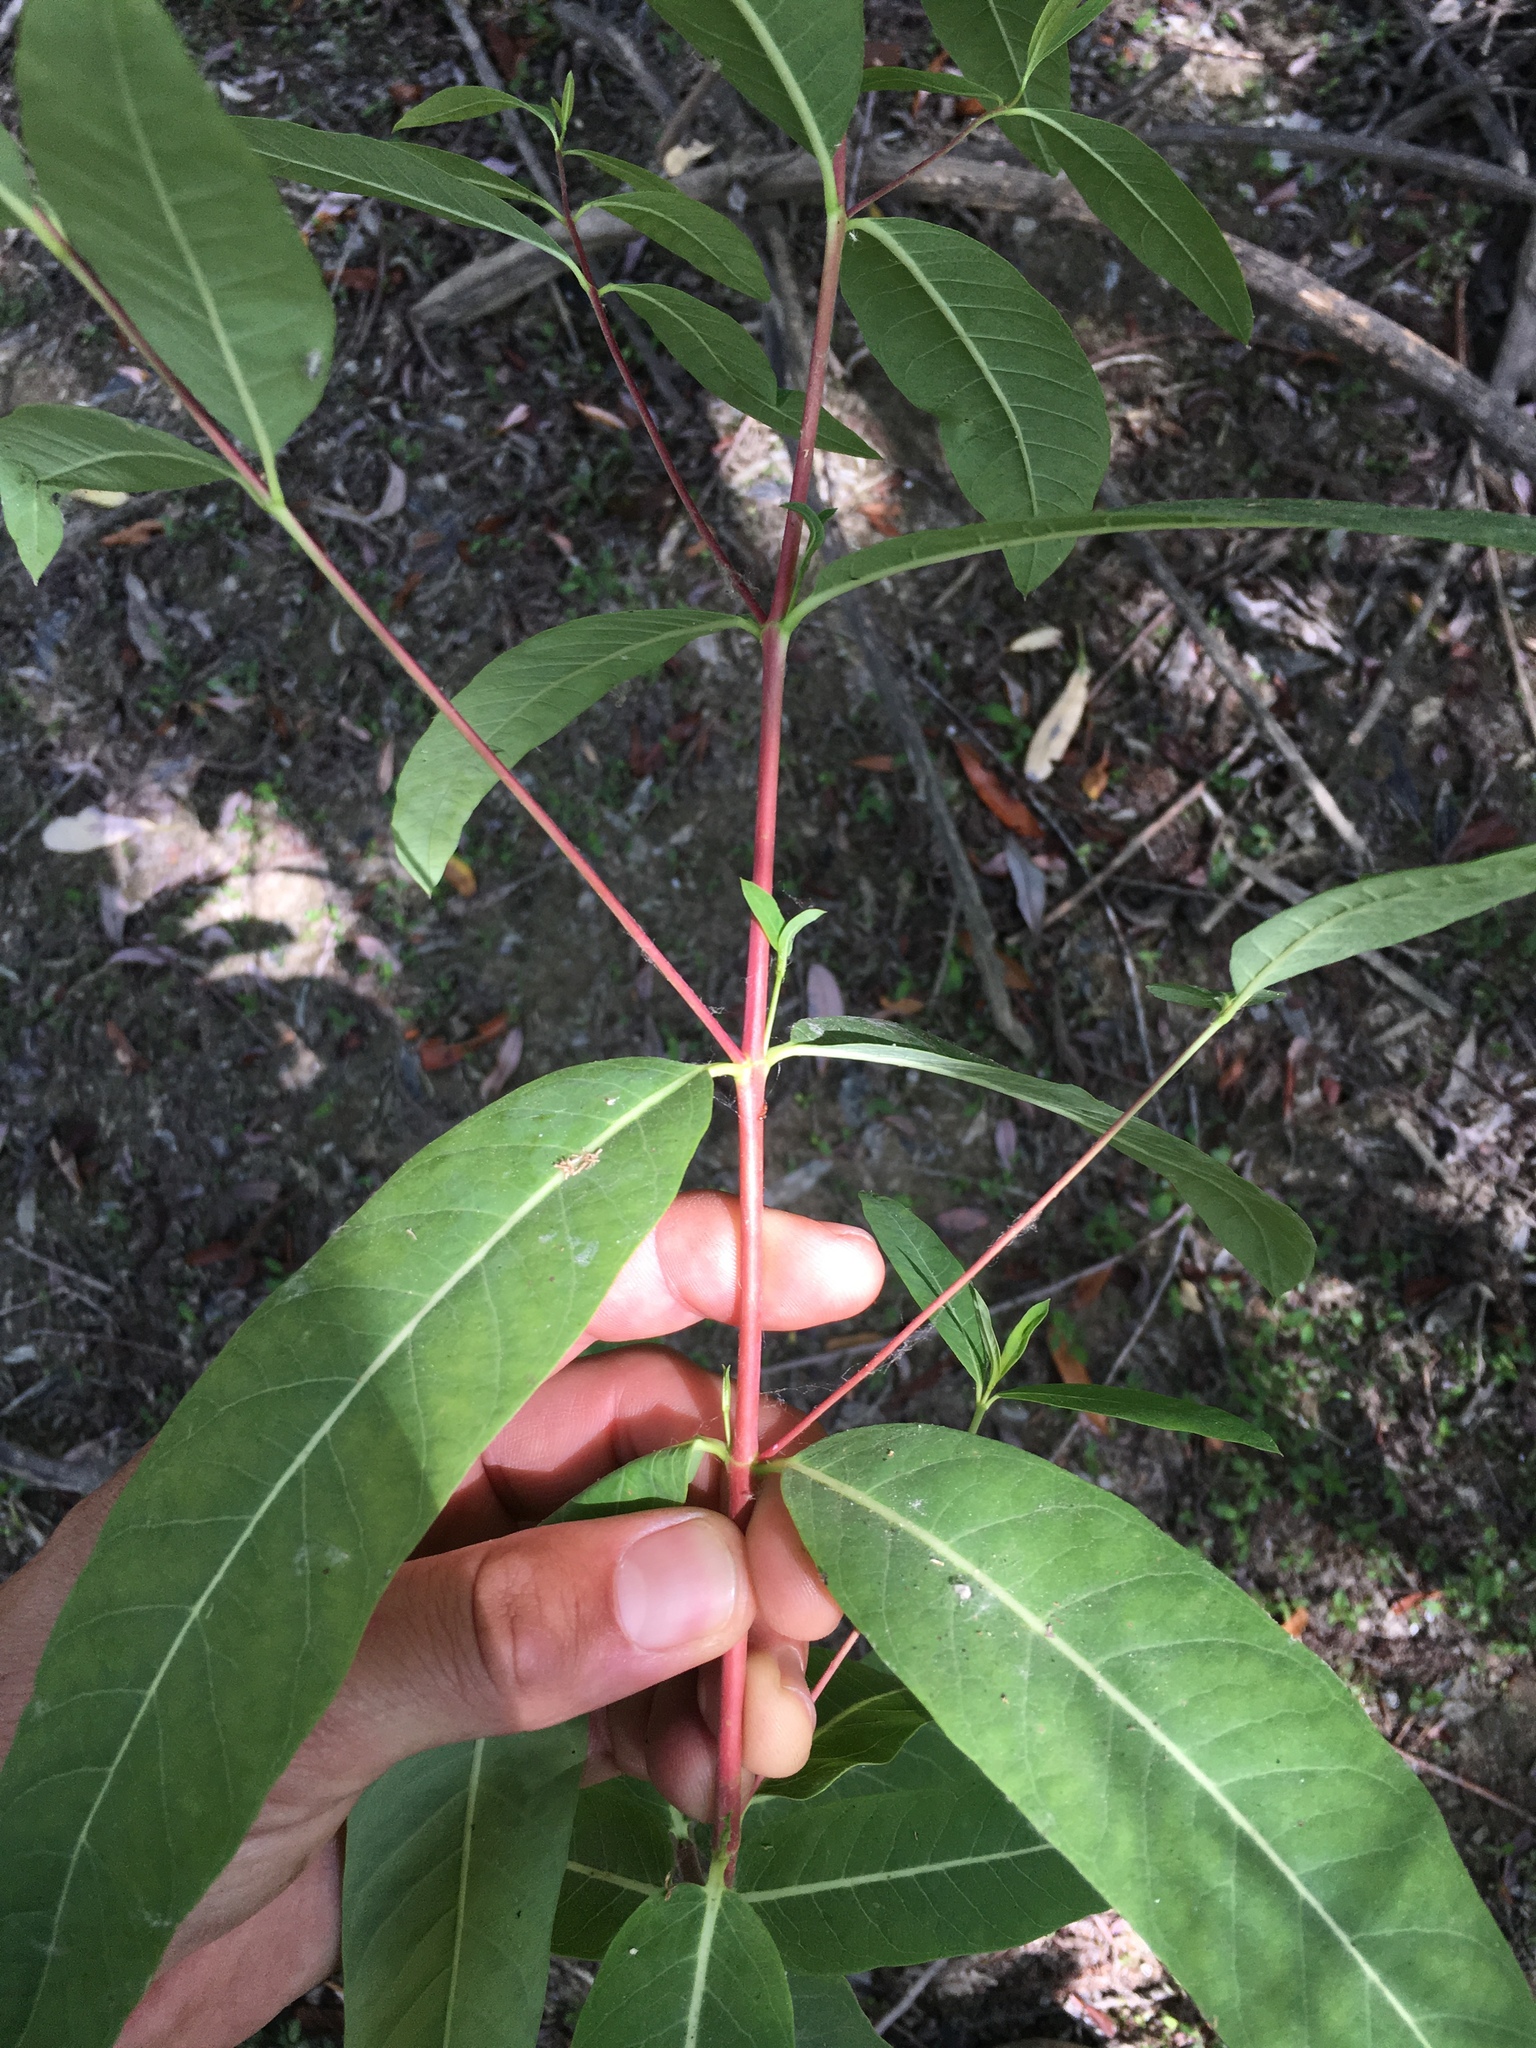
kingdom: Plantae
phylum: Tracheophyta
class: Magnoliopsida
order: Gentianales
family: Apocynaceae
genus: Apocynum
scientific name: Apocynum cannabinum
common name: Hemp dogbane
